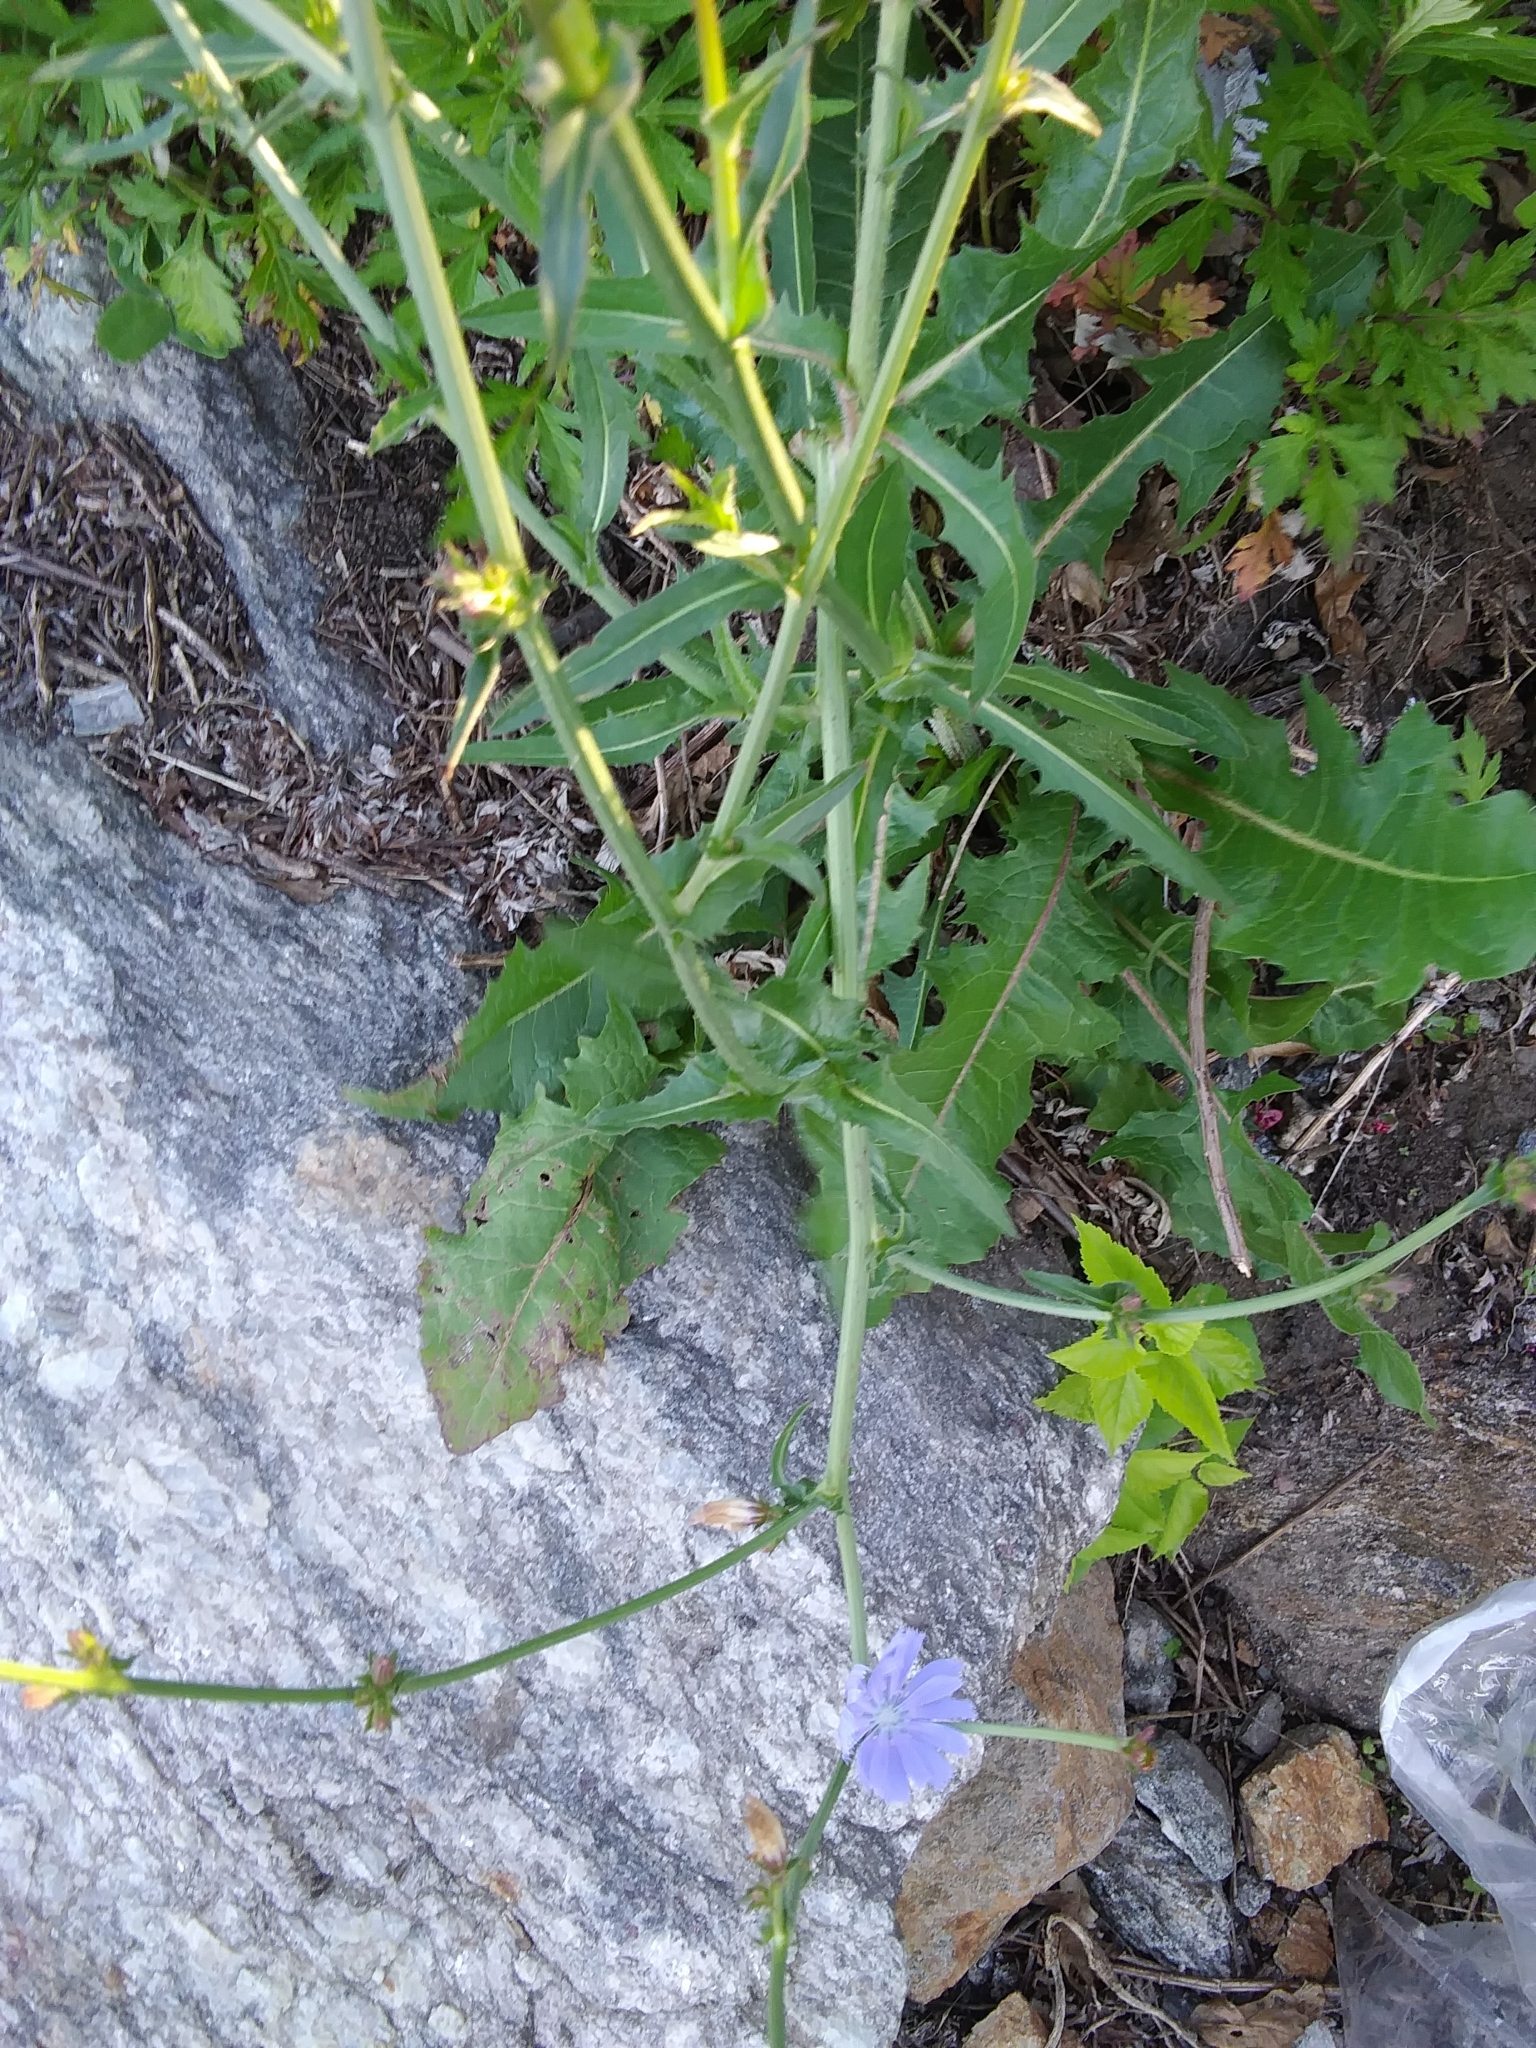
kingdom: Plantae
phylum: Tracheophyta
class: Magnoliopsida
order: Asterales
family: Asteraceae
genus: Cichorium
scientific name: Cichorium intybus
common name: Chicory
